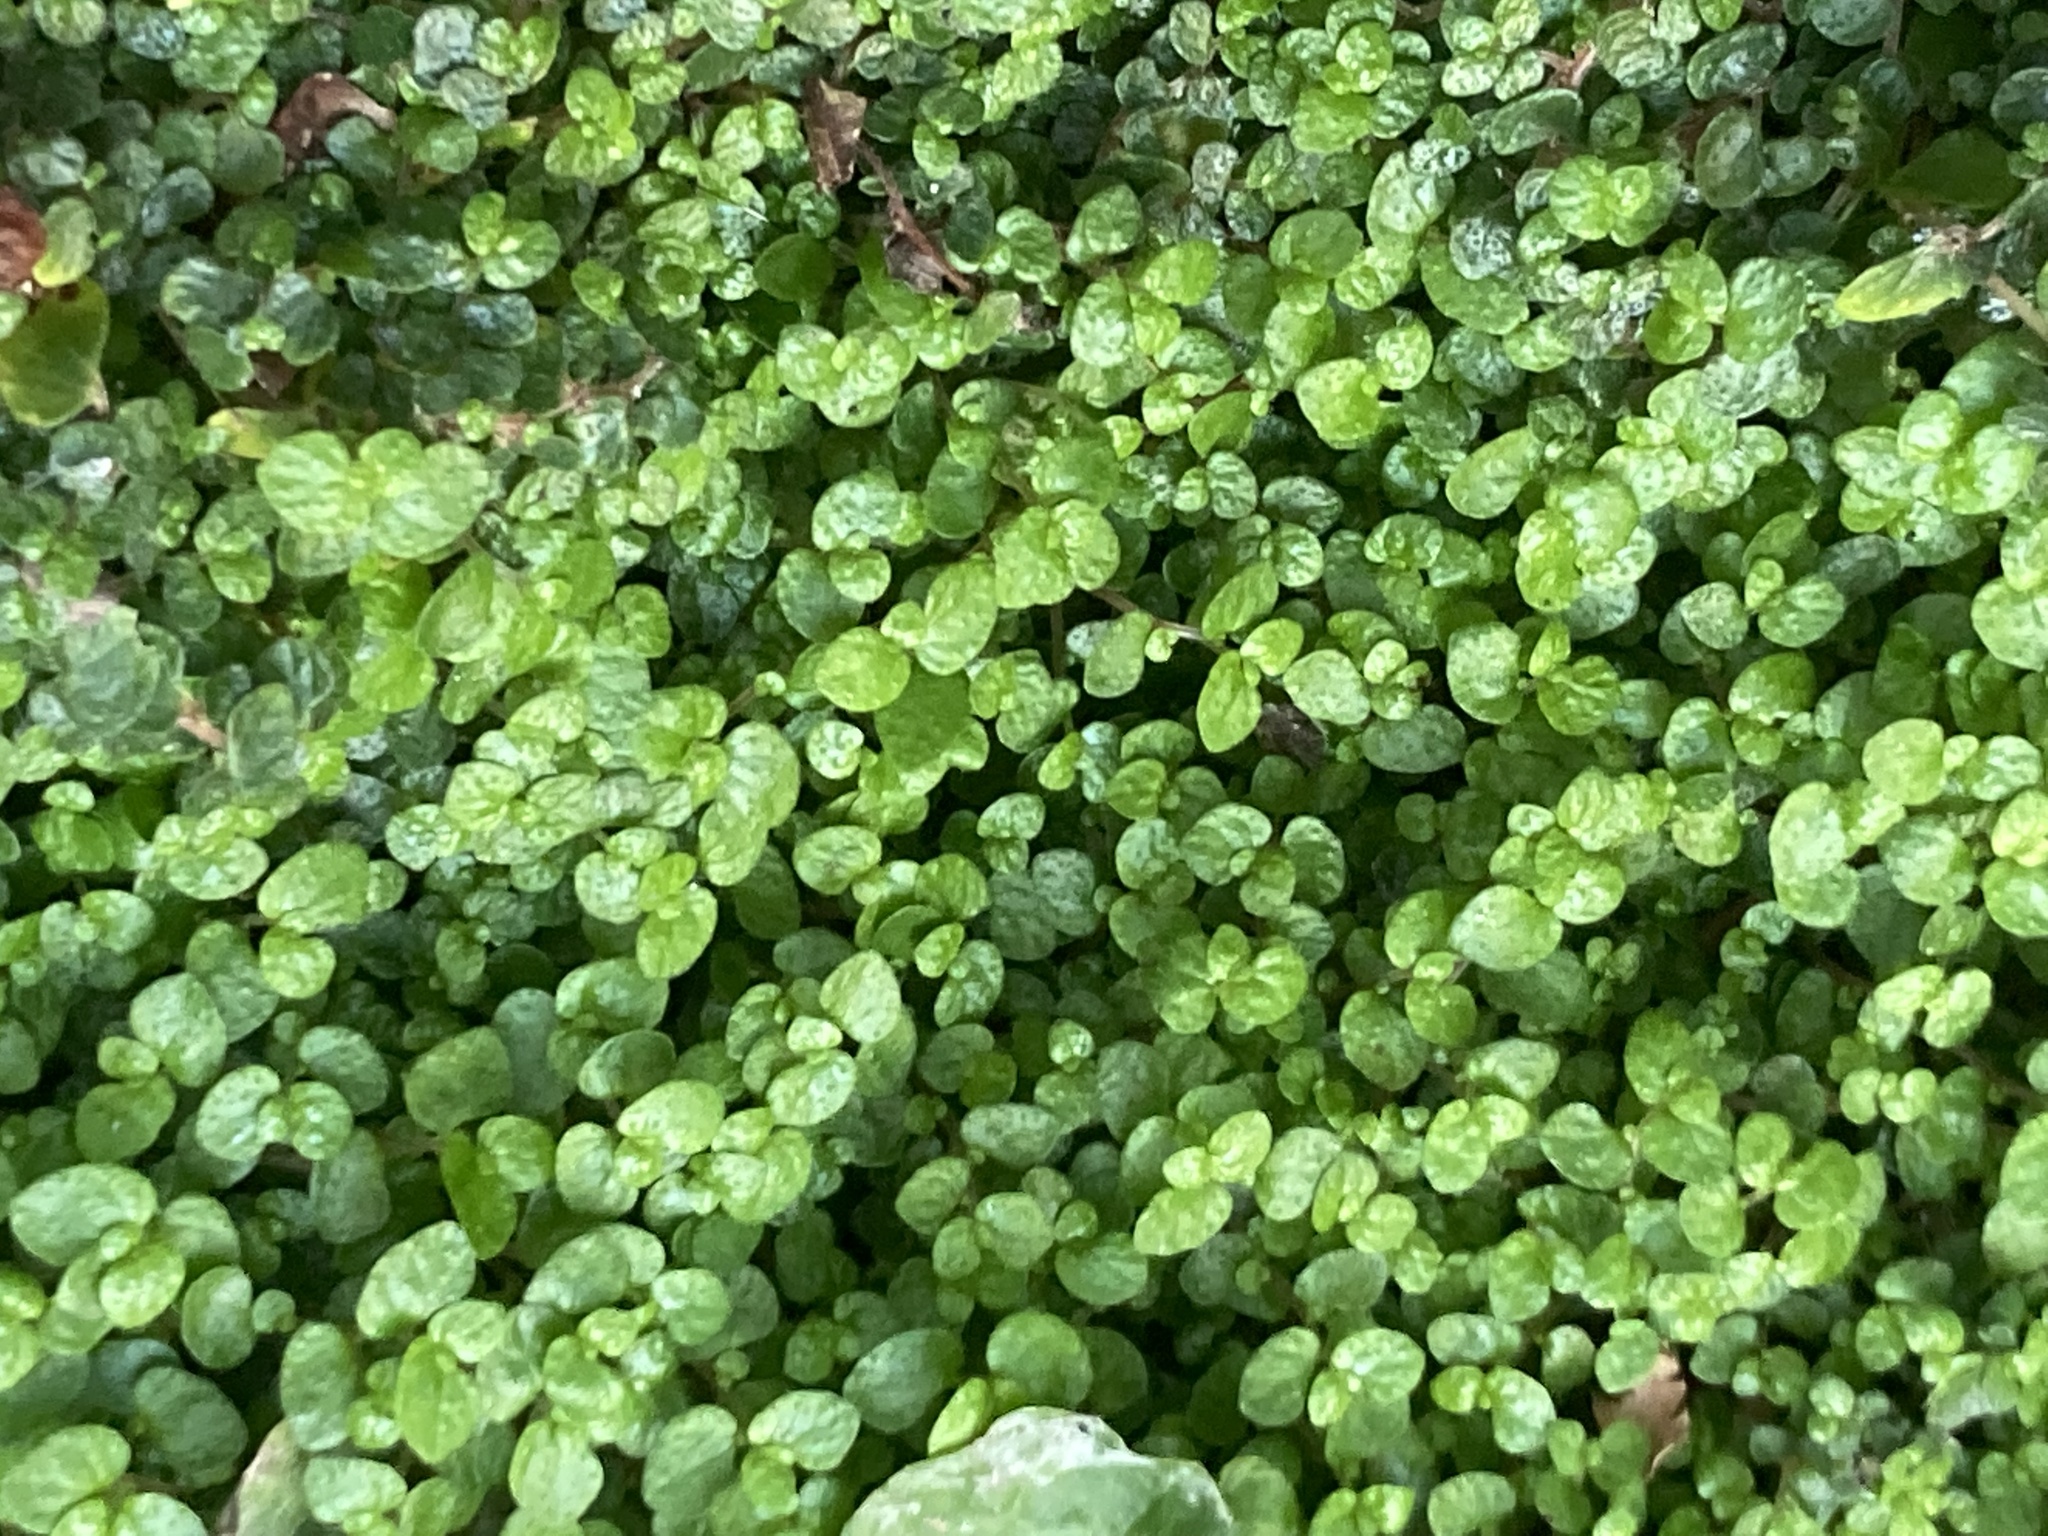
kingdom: Plantae
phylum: Tracheophyta
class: Magnoliopsida
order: Rosales
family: Urticaceae
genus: Soleirolia
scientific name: Soleirolia soleirolii
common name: Mind-your-own-business
